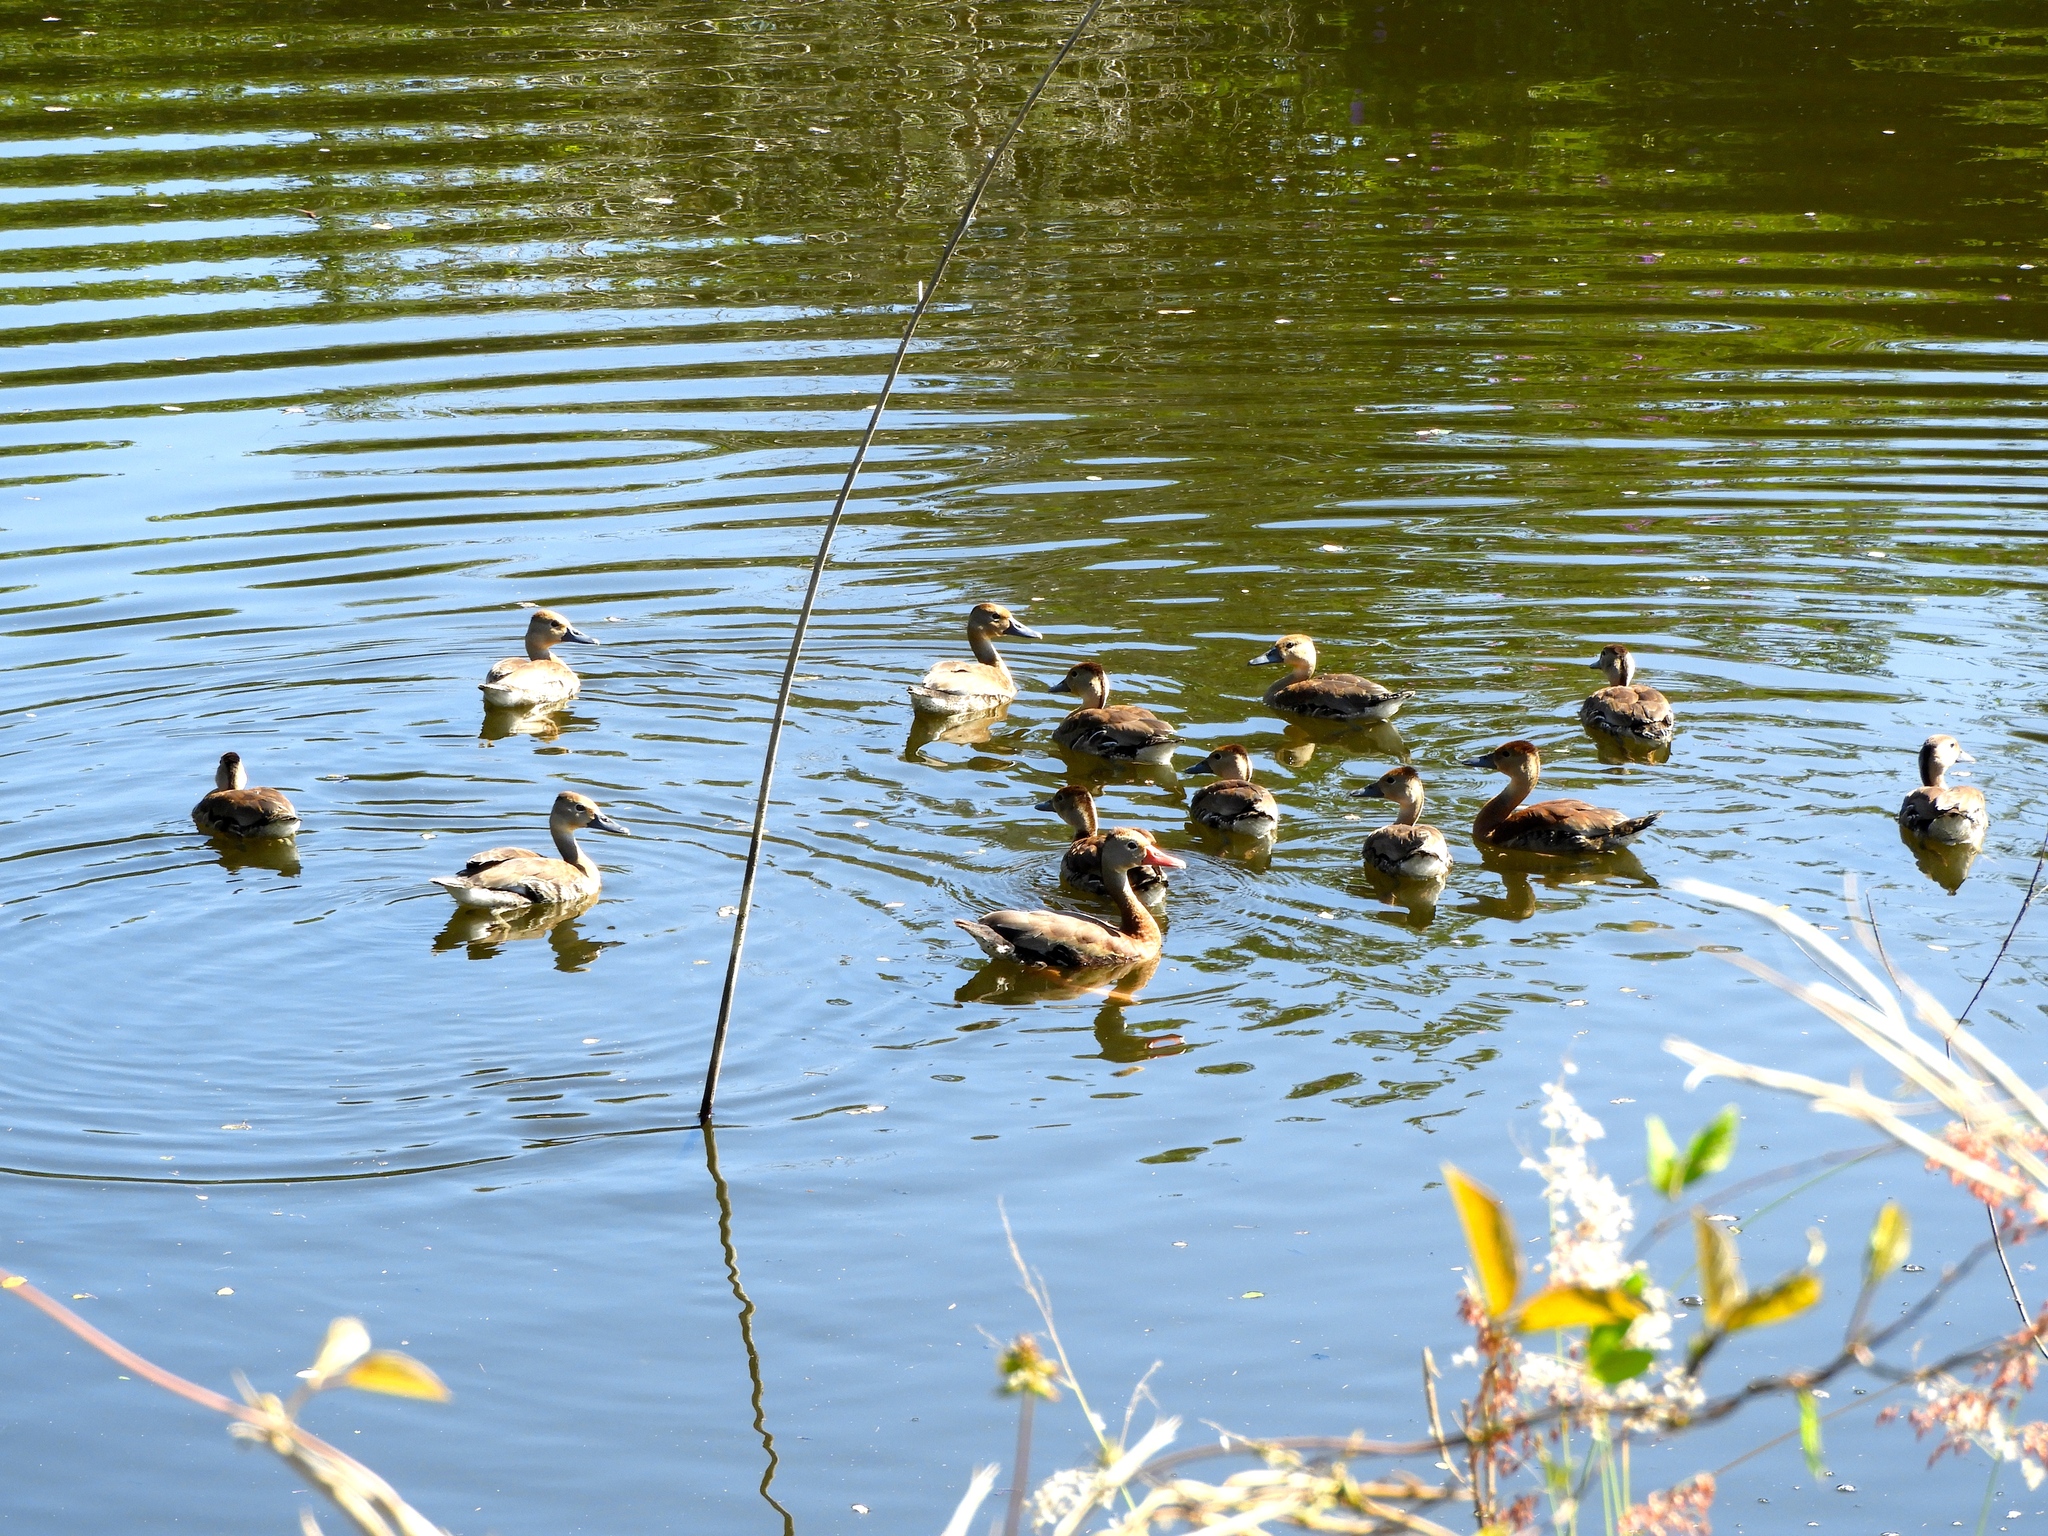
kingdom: Animalia
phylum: Chordata
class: Aves
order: Anseriformes
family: Anatidae
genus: Dendrocygna
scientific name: Dendrocygna autumnalis
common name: Black-bellied whistling duck
